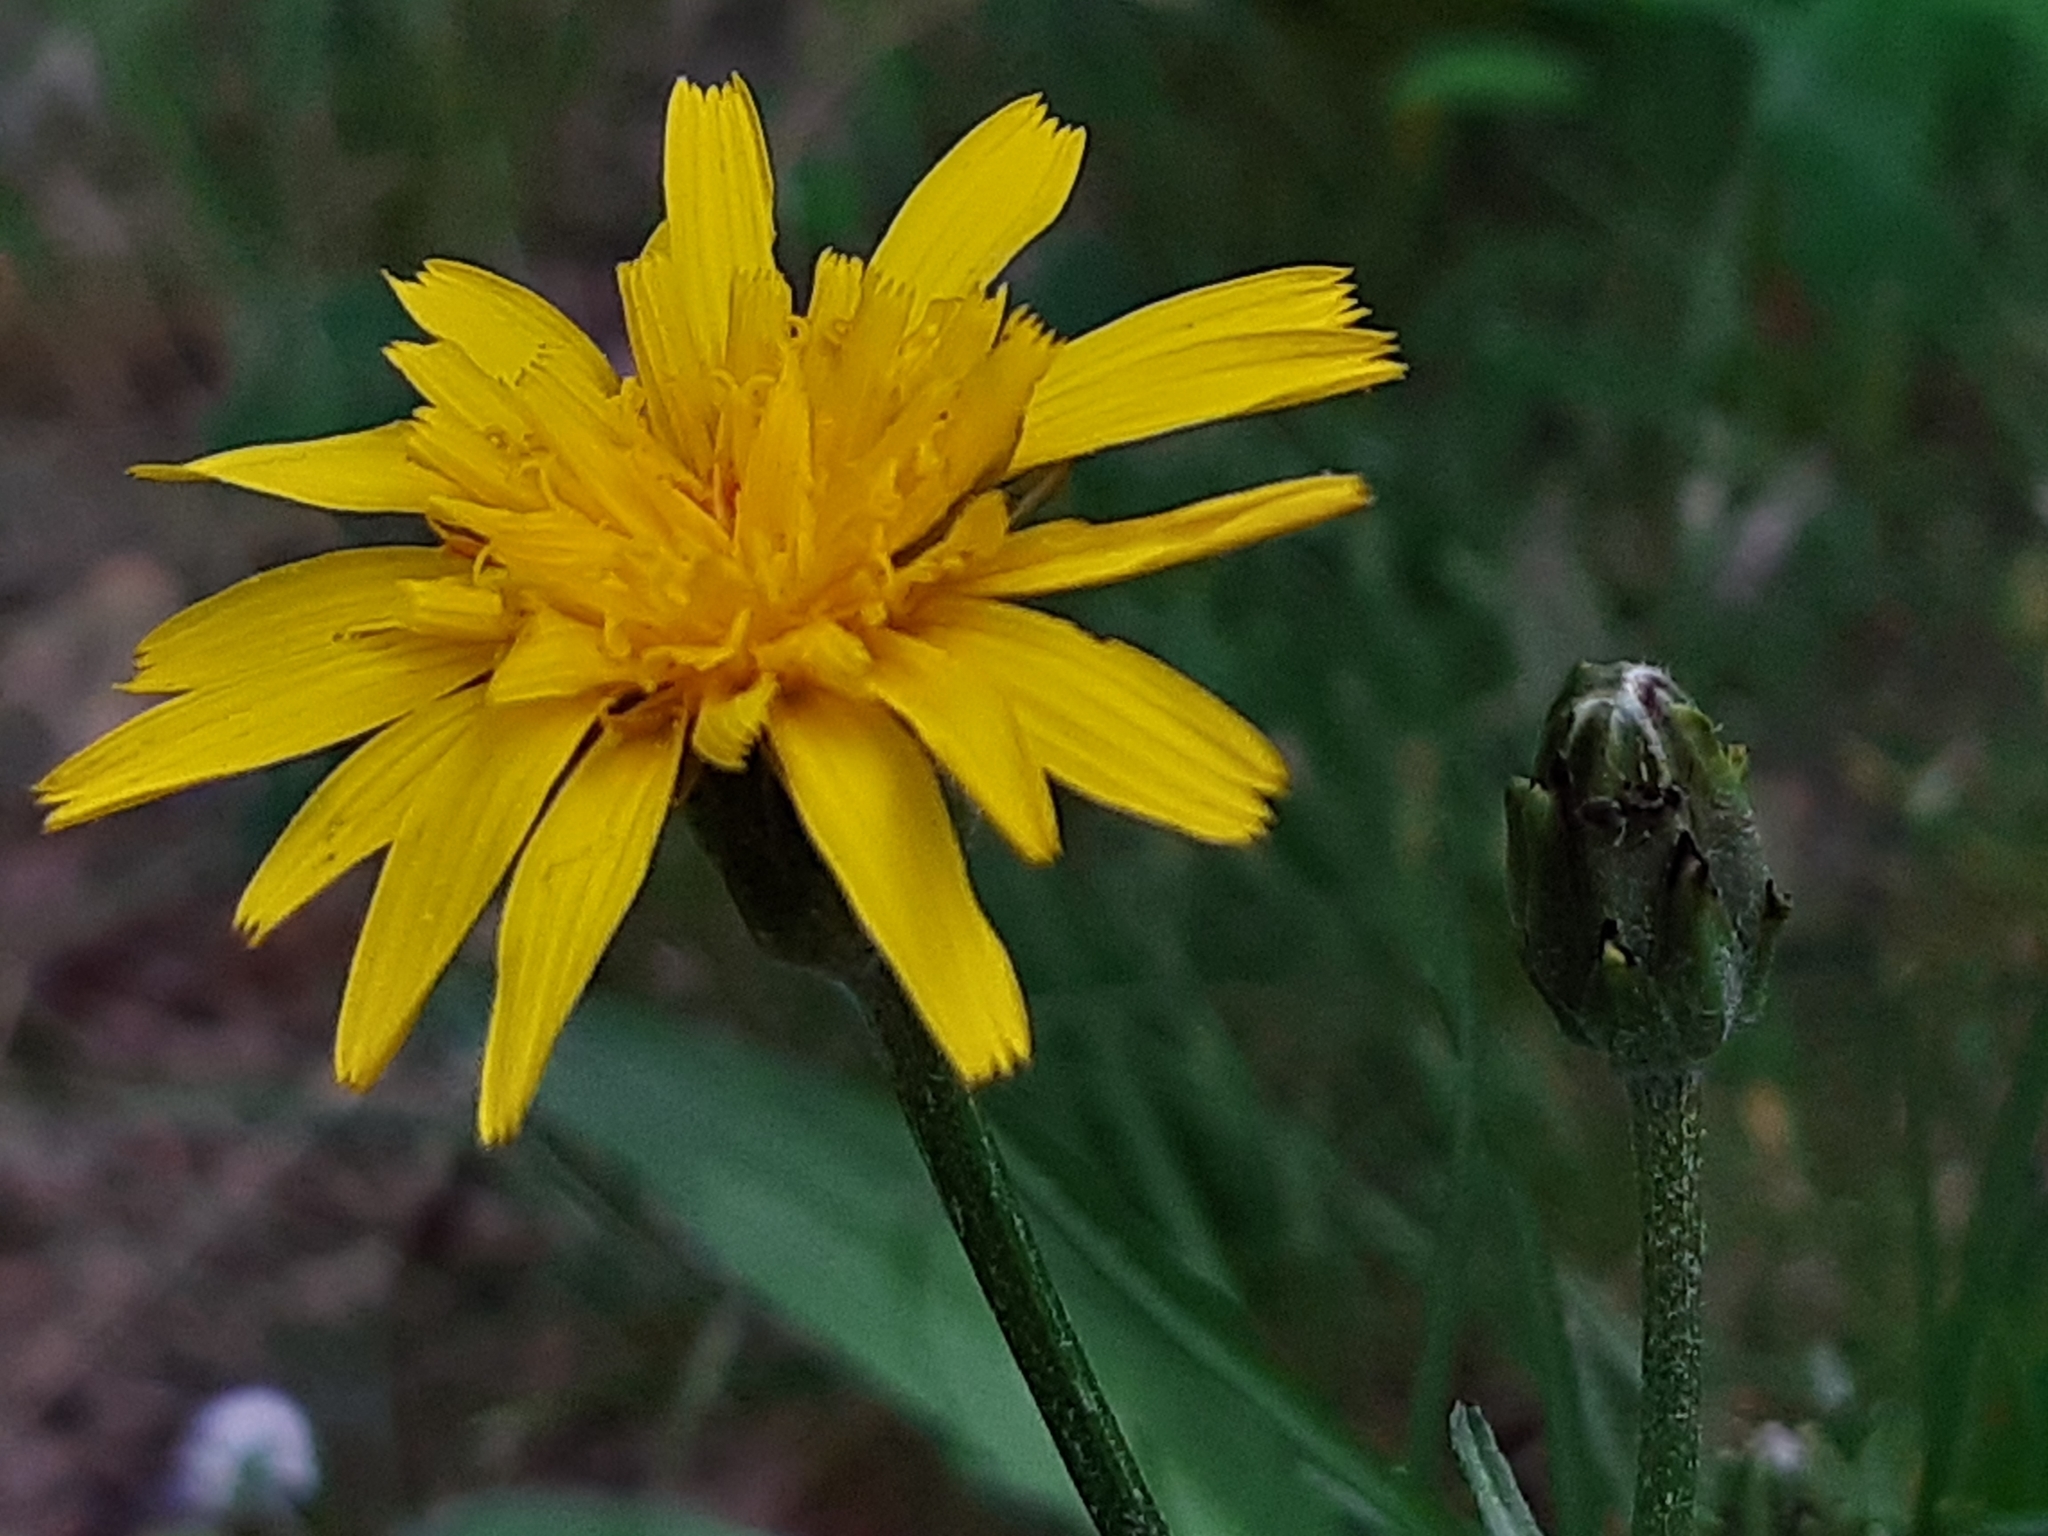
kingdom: Plantae
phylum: Tracheophyta
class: Magnoliopsida
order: Asterales
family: Asteraceae
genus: Scorzonera
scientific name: Scorzonera cana
